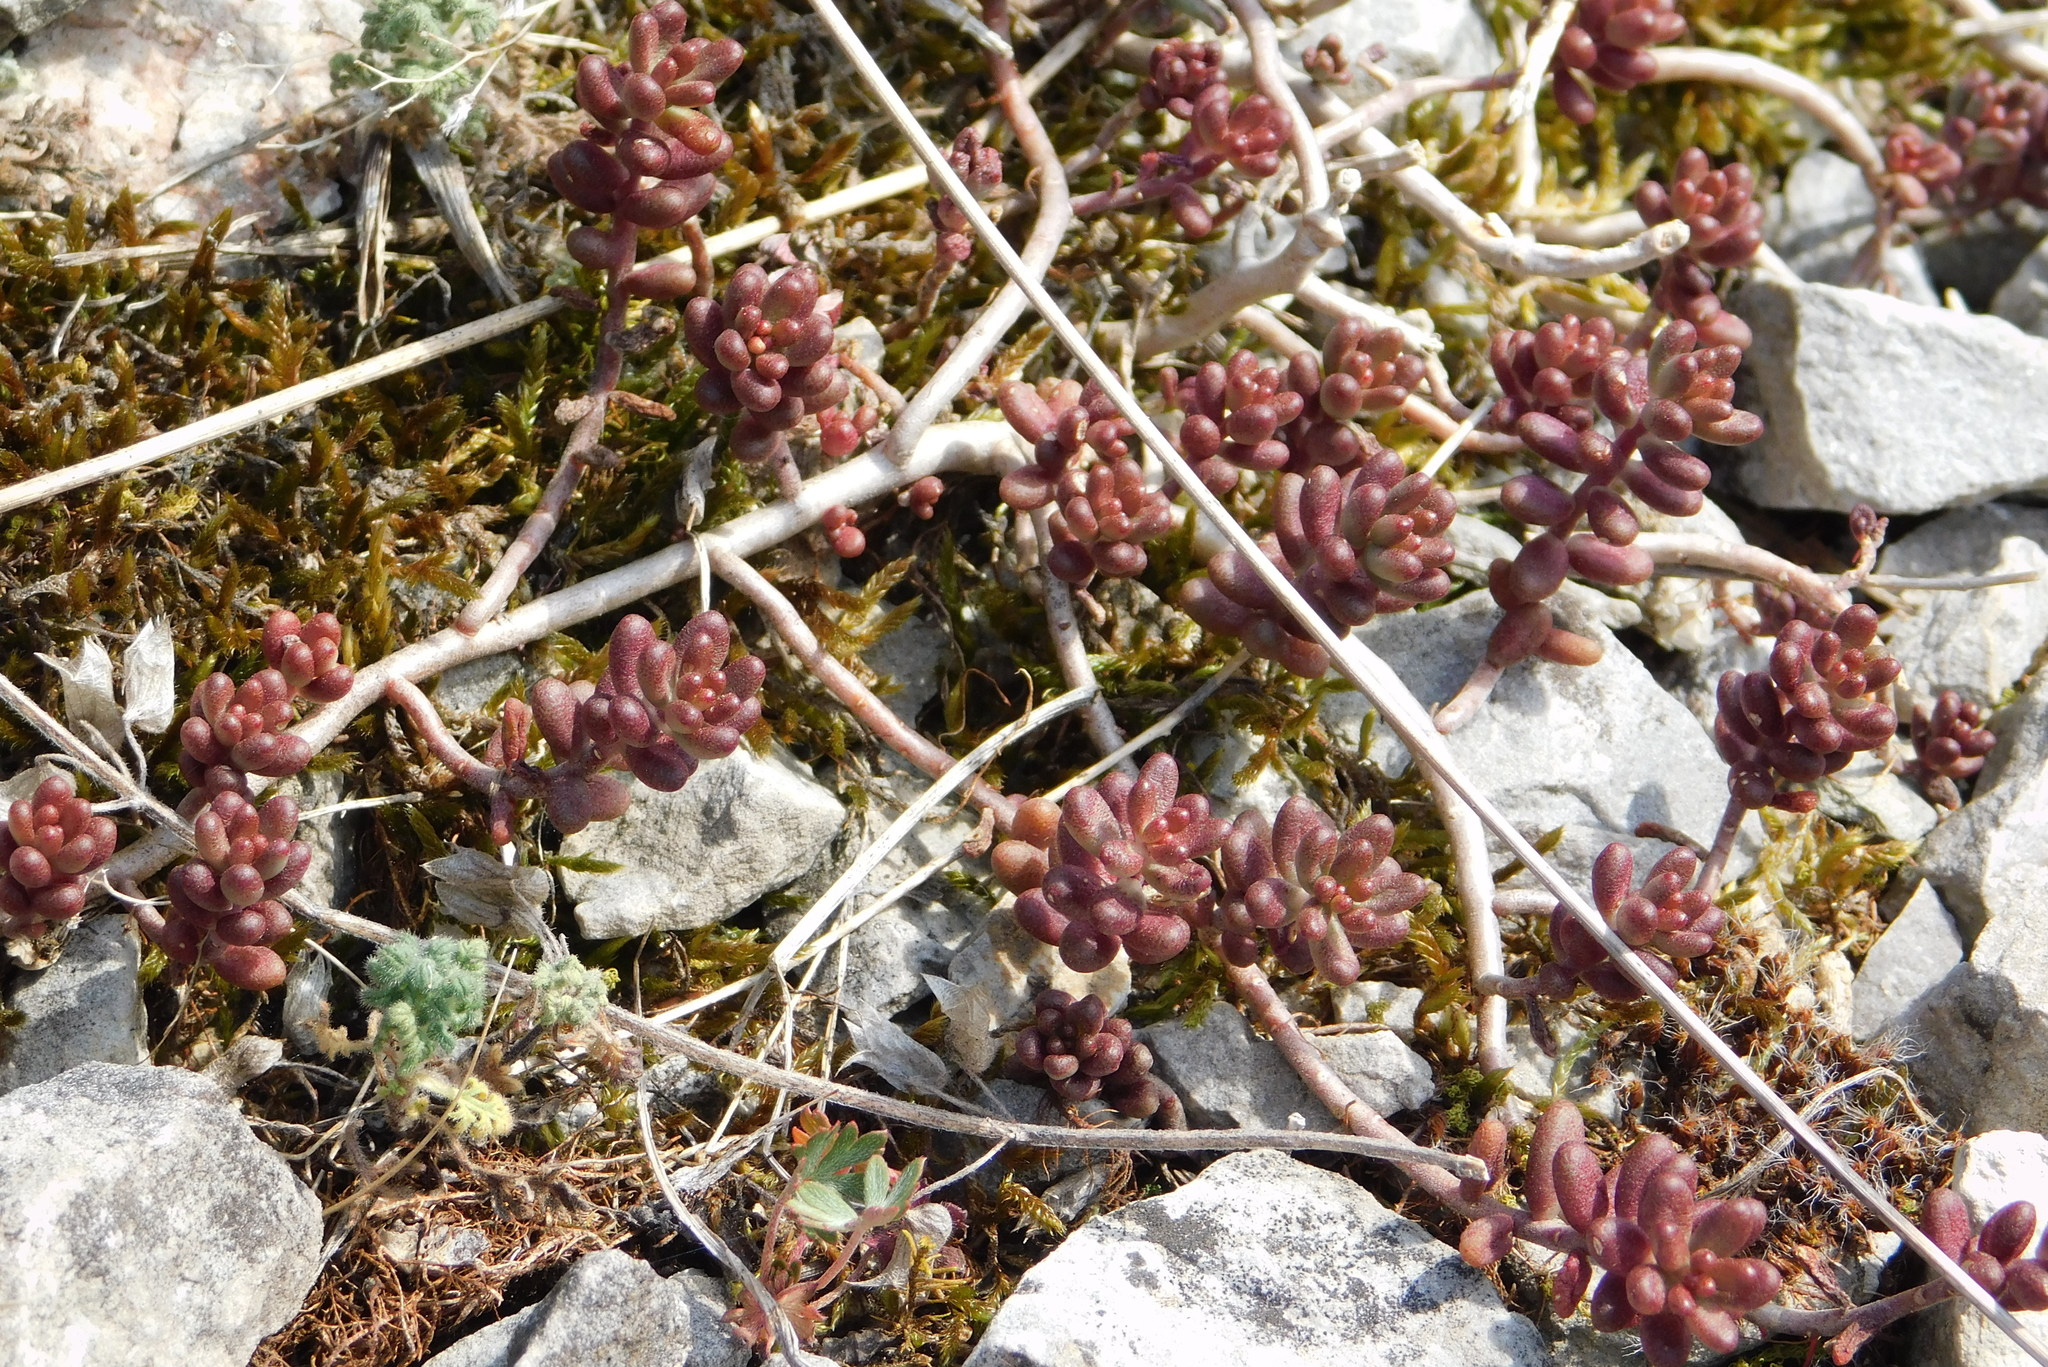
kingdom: Plantae
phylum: Tracheophyta
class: Magnoliopsida
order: Saxifragales
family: Crassulaceae
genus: Sedum
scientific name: Sedum album
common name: White stonecrop
